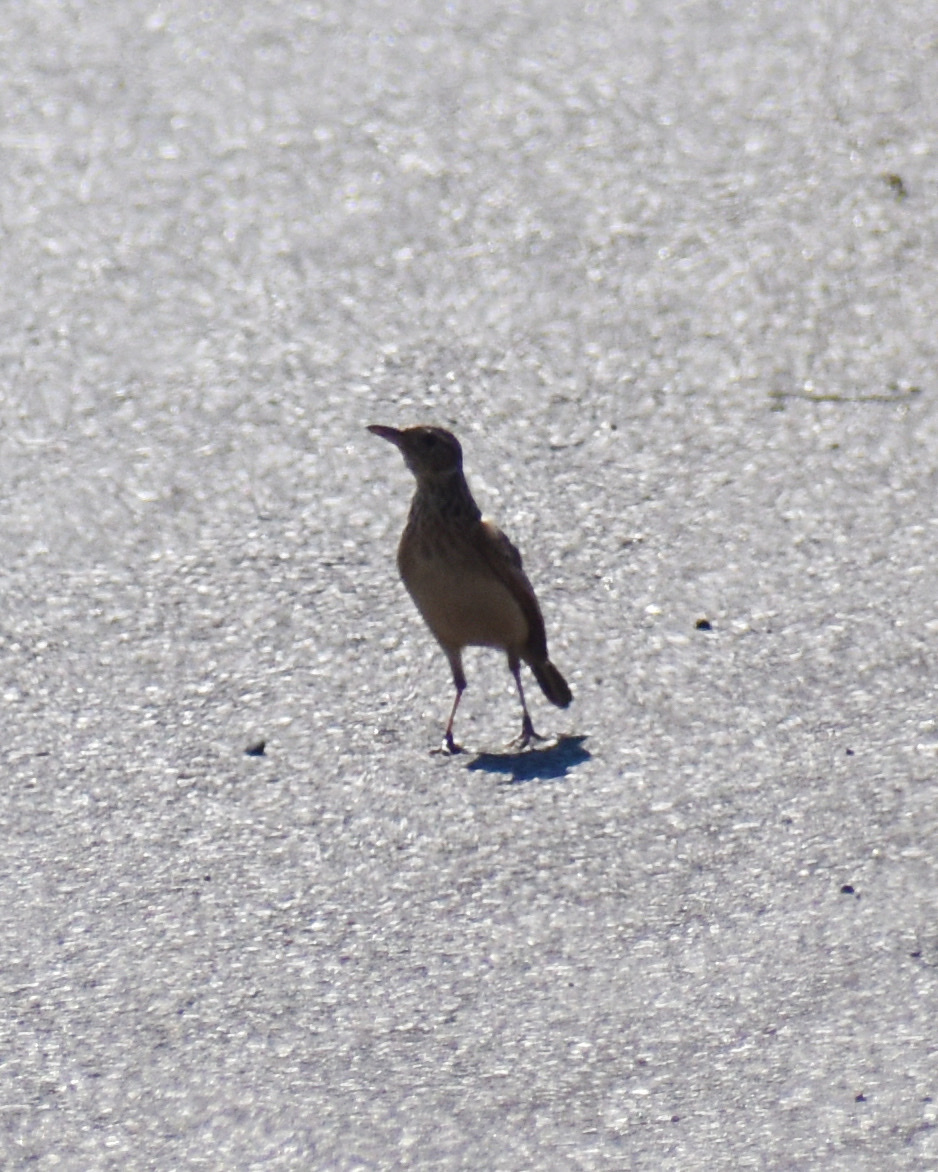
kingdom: Animalia
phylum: Chordata
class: Aves
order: Passeriformes
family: Motacillidae
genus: Anthus
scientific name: Anthus cinnamomeus
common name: African pipit
